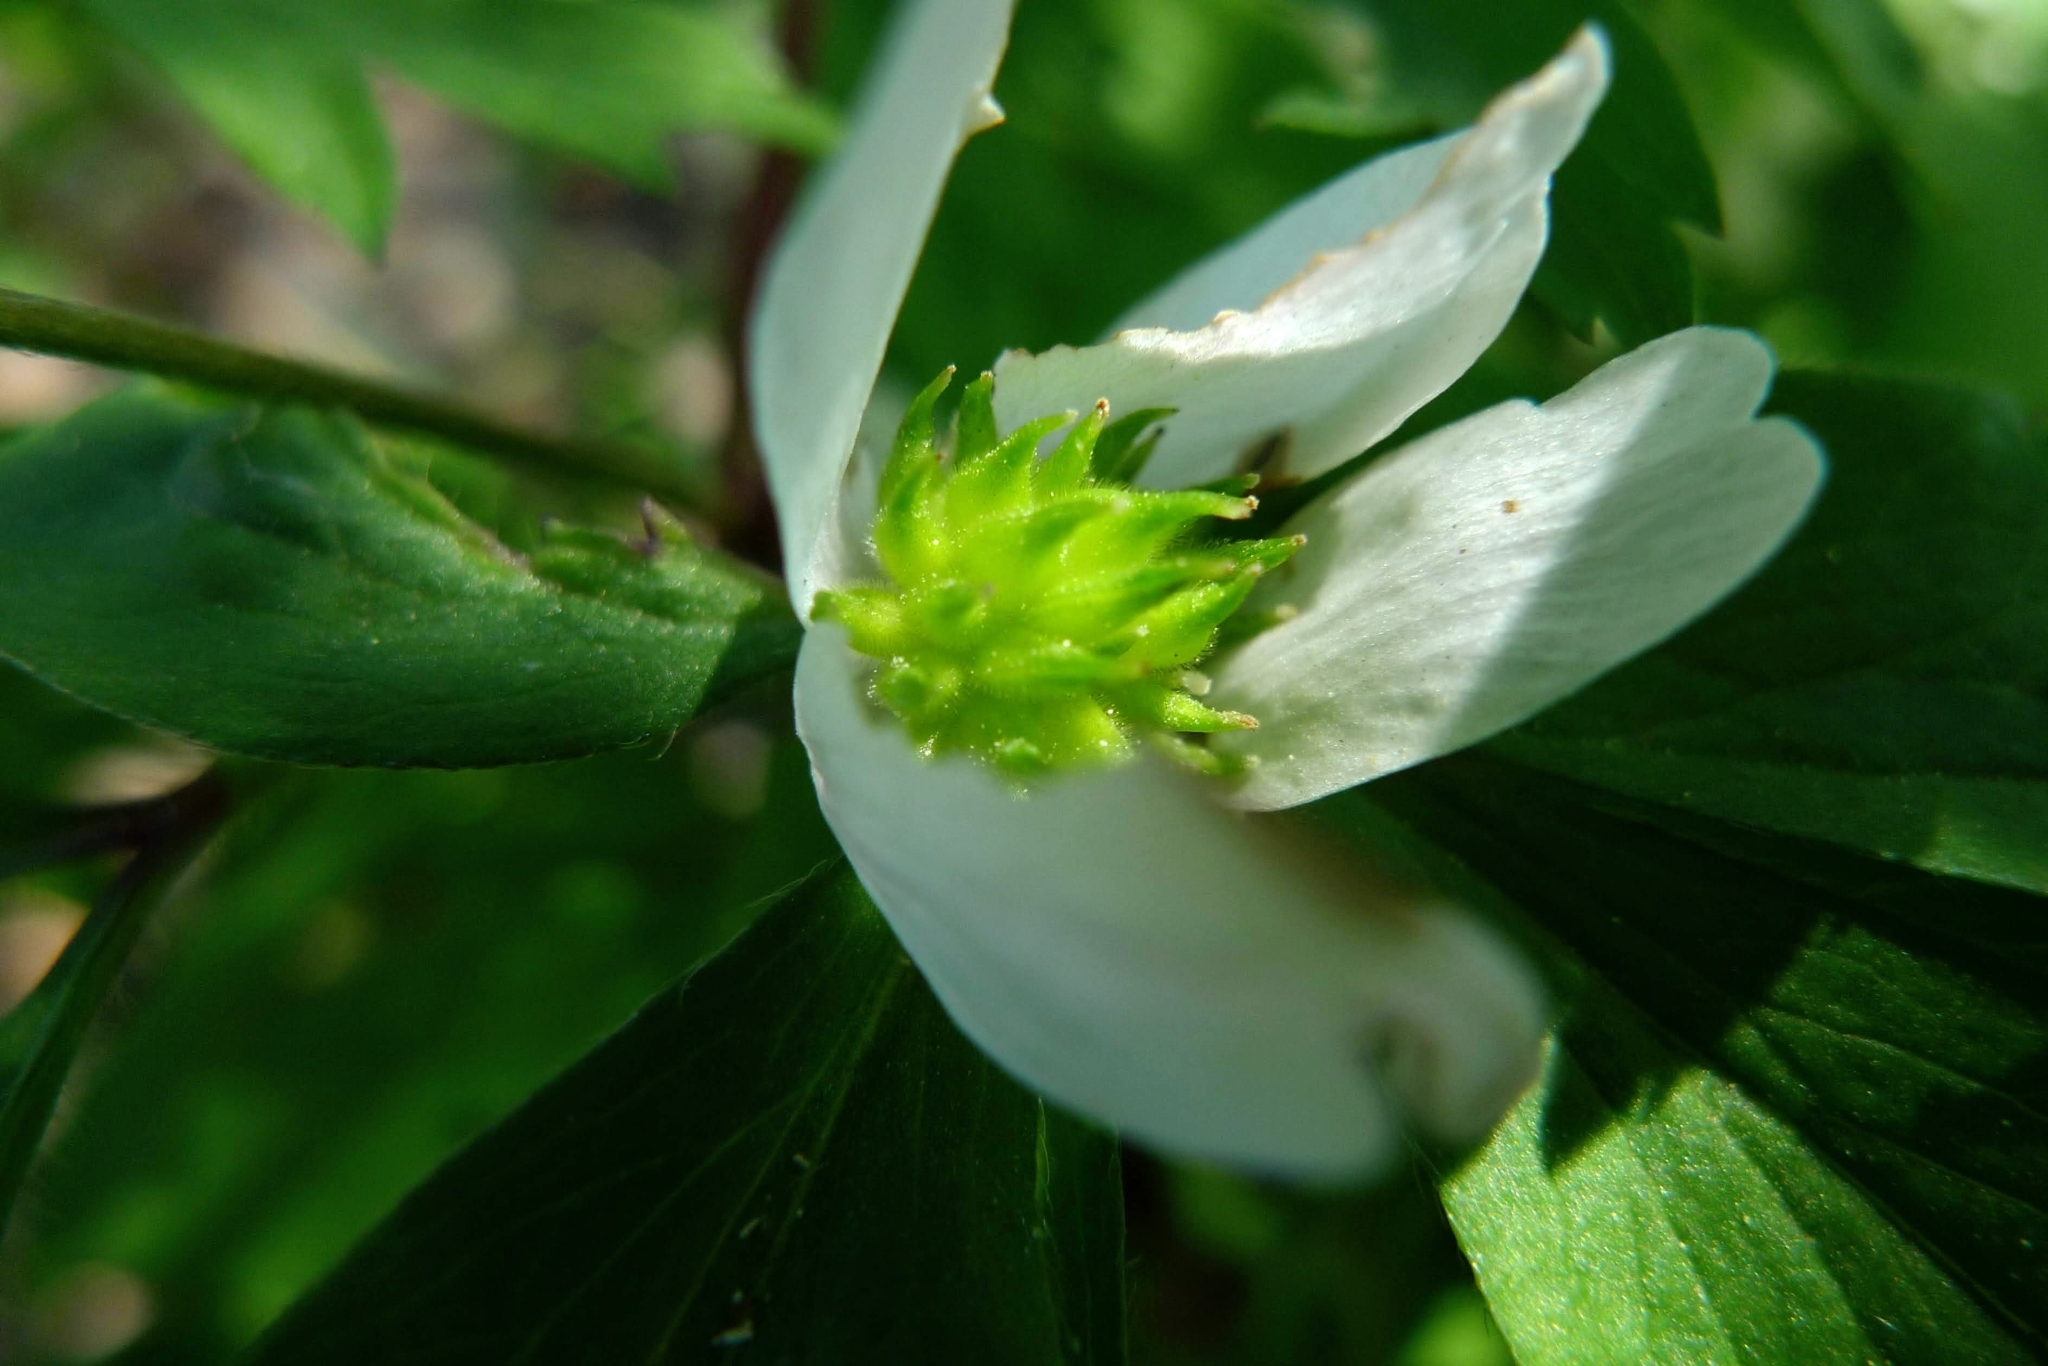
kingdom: Plantae
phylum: Tracheophyta
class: Magnoliopsida
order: Ranunculales
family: Ranunculaceae
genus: Anemone
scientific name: Anemone nemorosa
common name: Wood anemone
